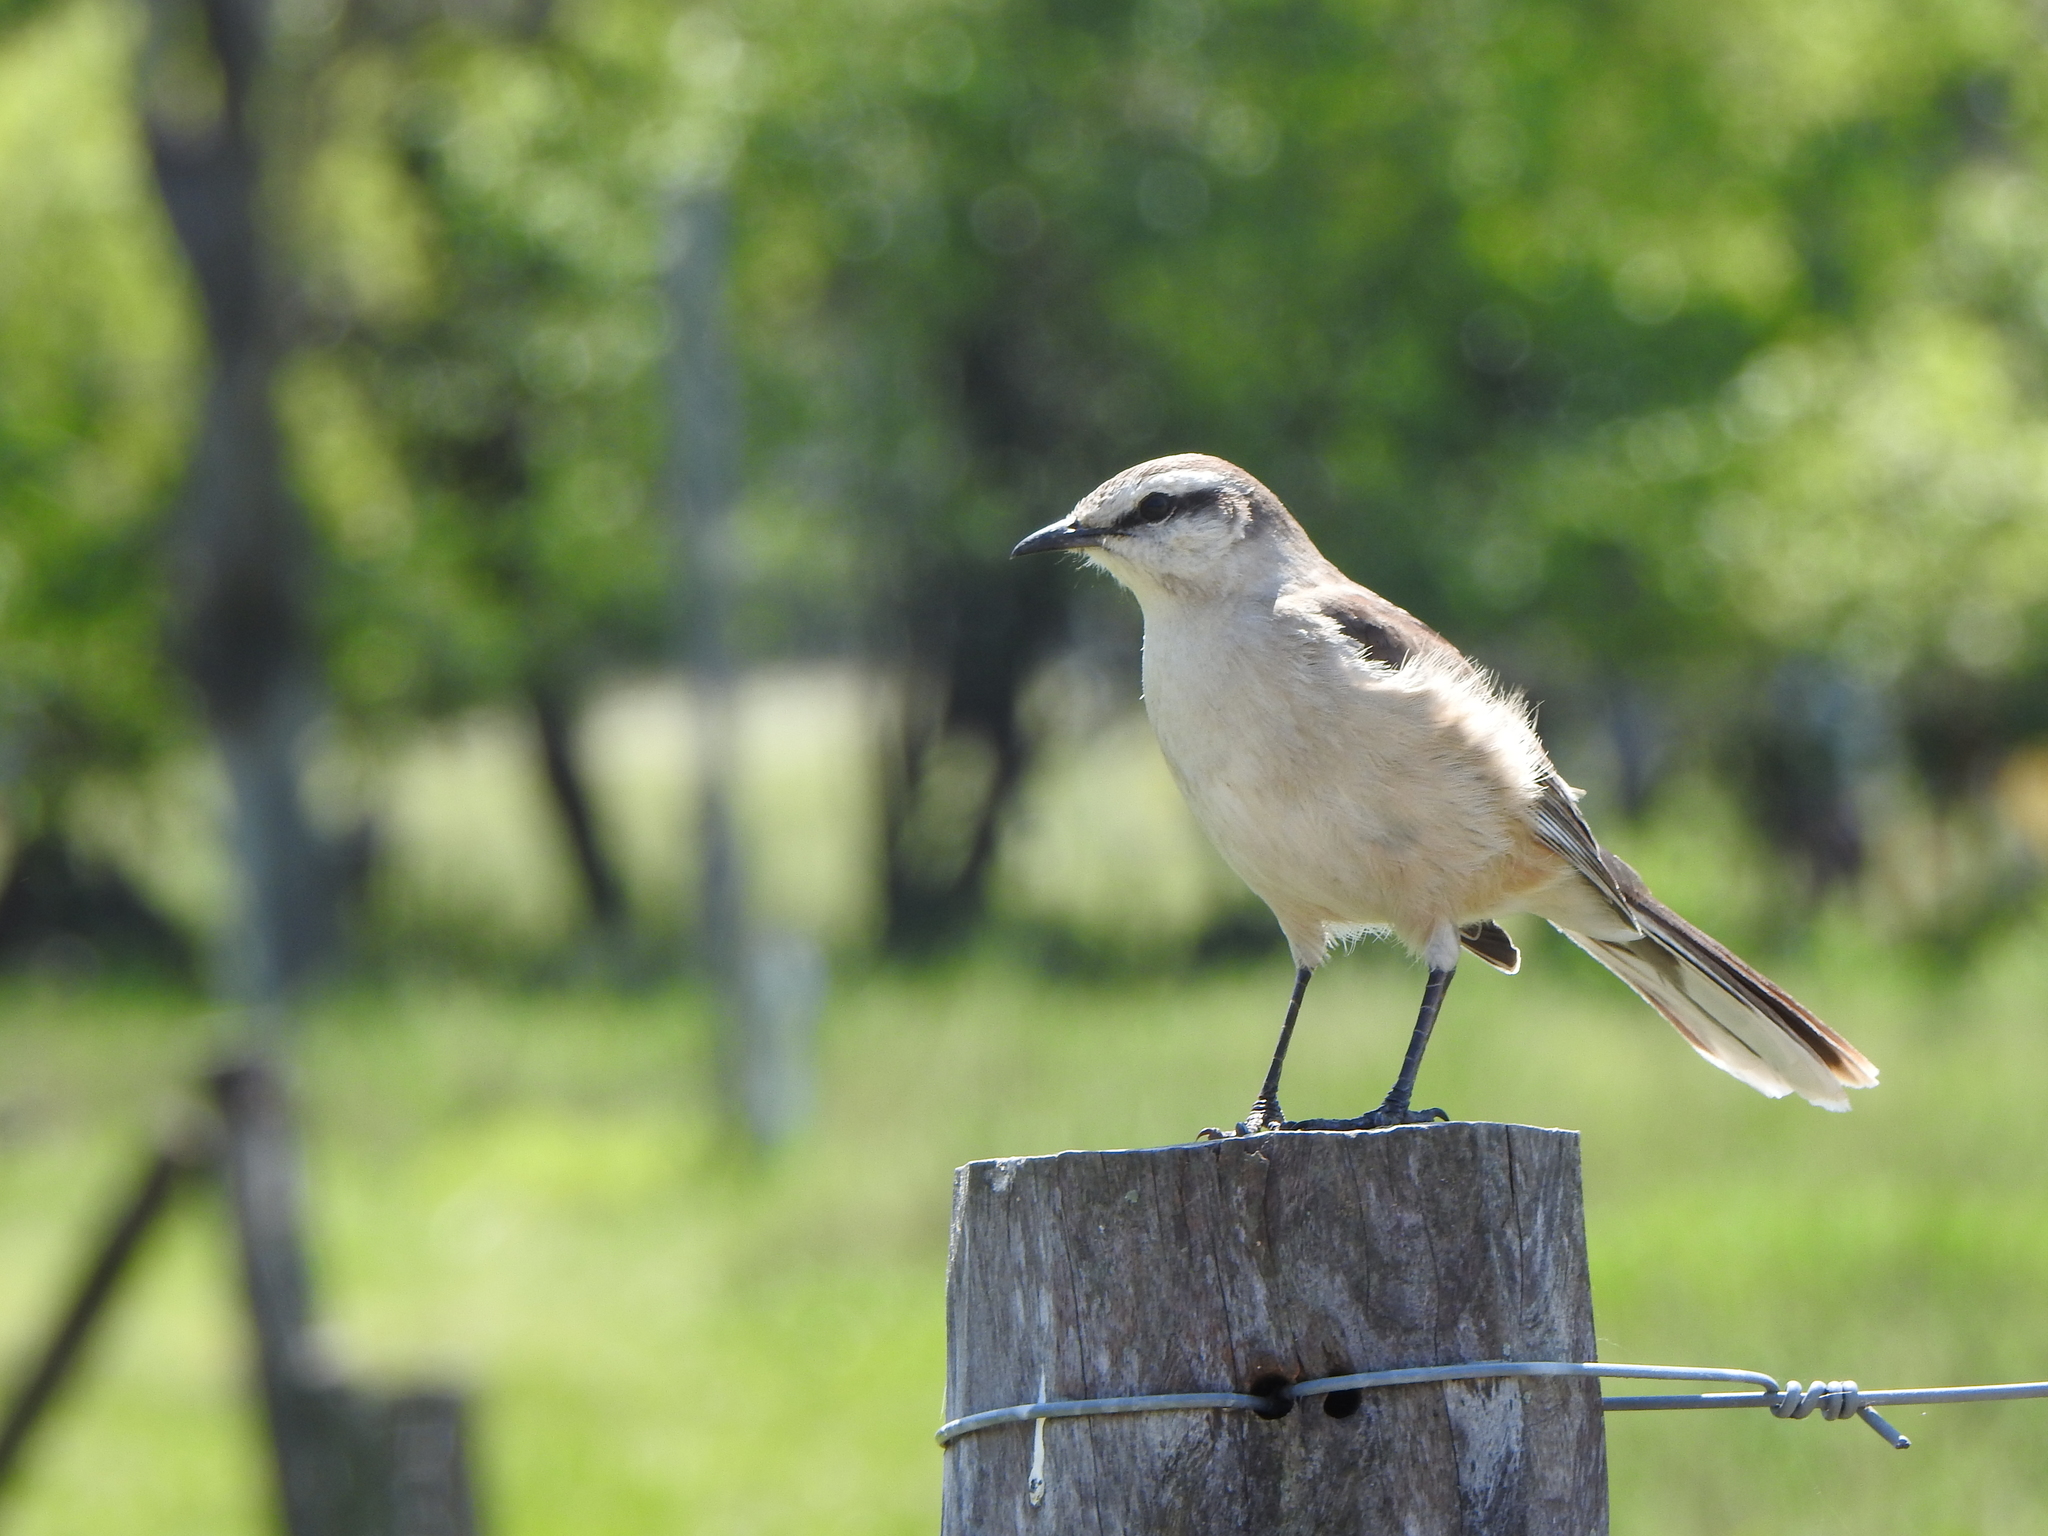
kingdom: Animalia
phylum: Chordata
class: Aves
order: Passeriformes
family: Mimidae
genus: Mimus
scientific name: Mimus saturninus
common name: Chalk-browed mockingbird
